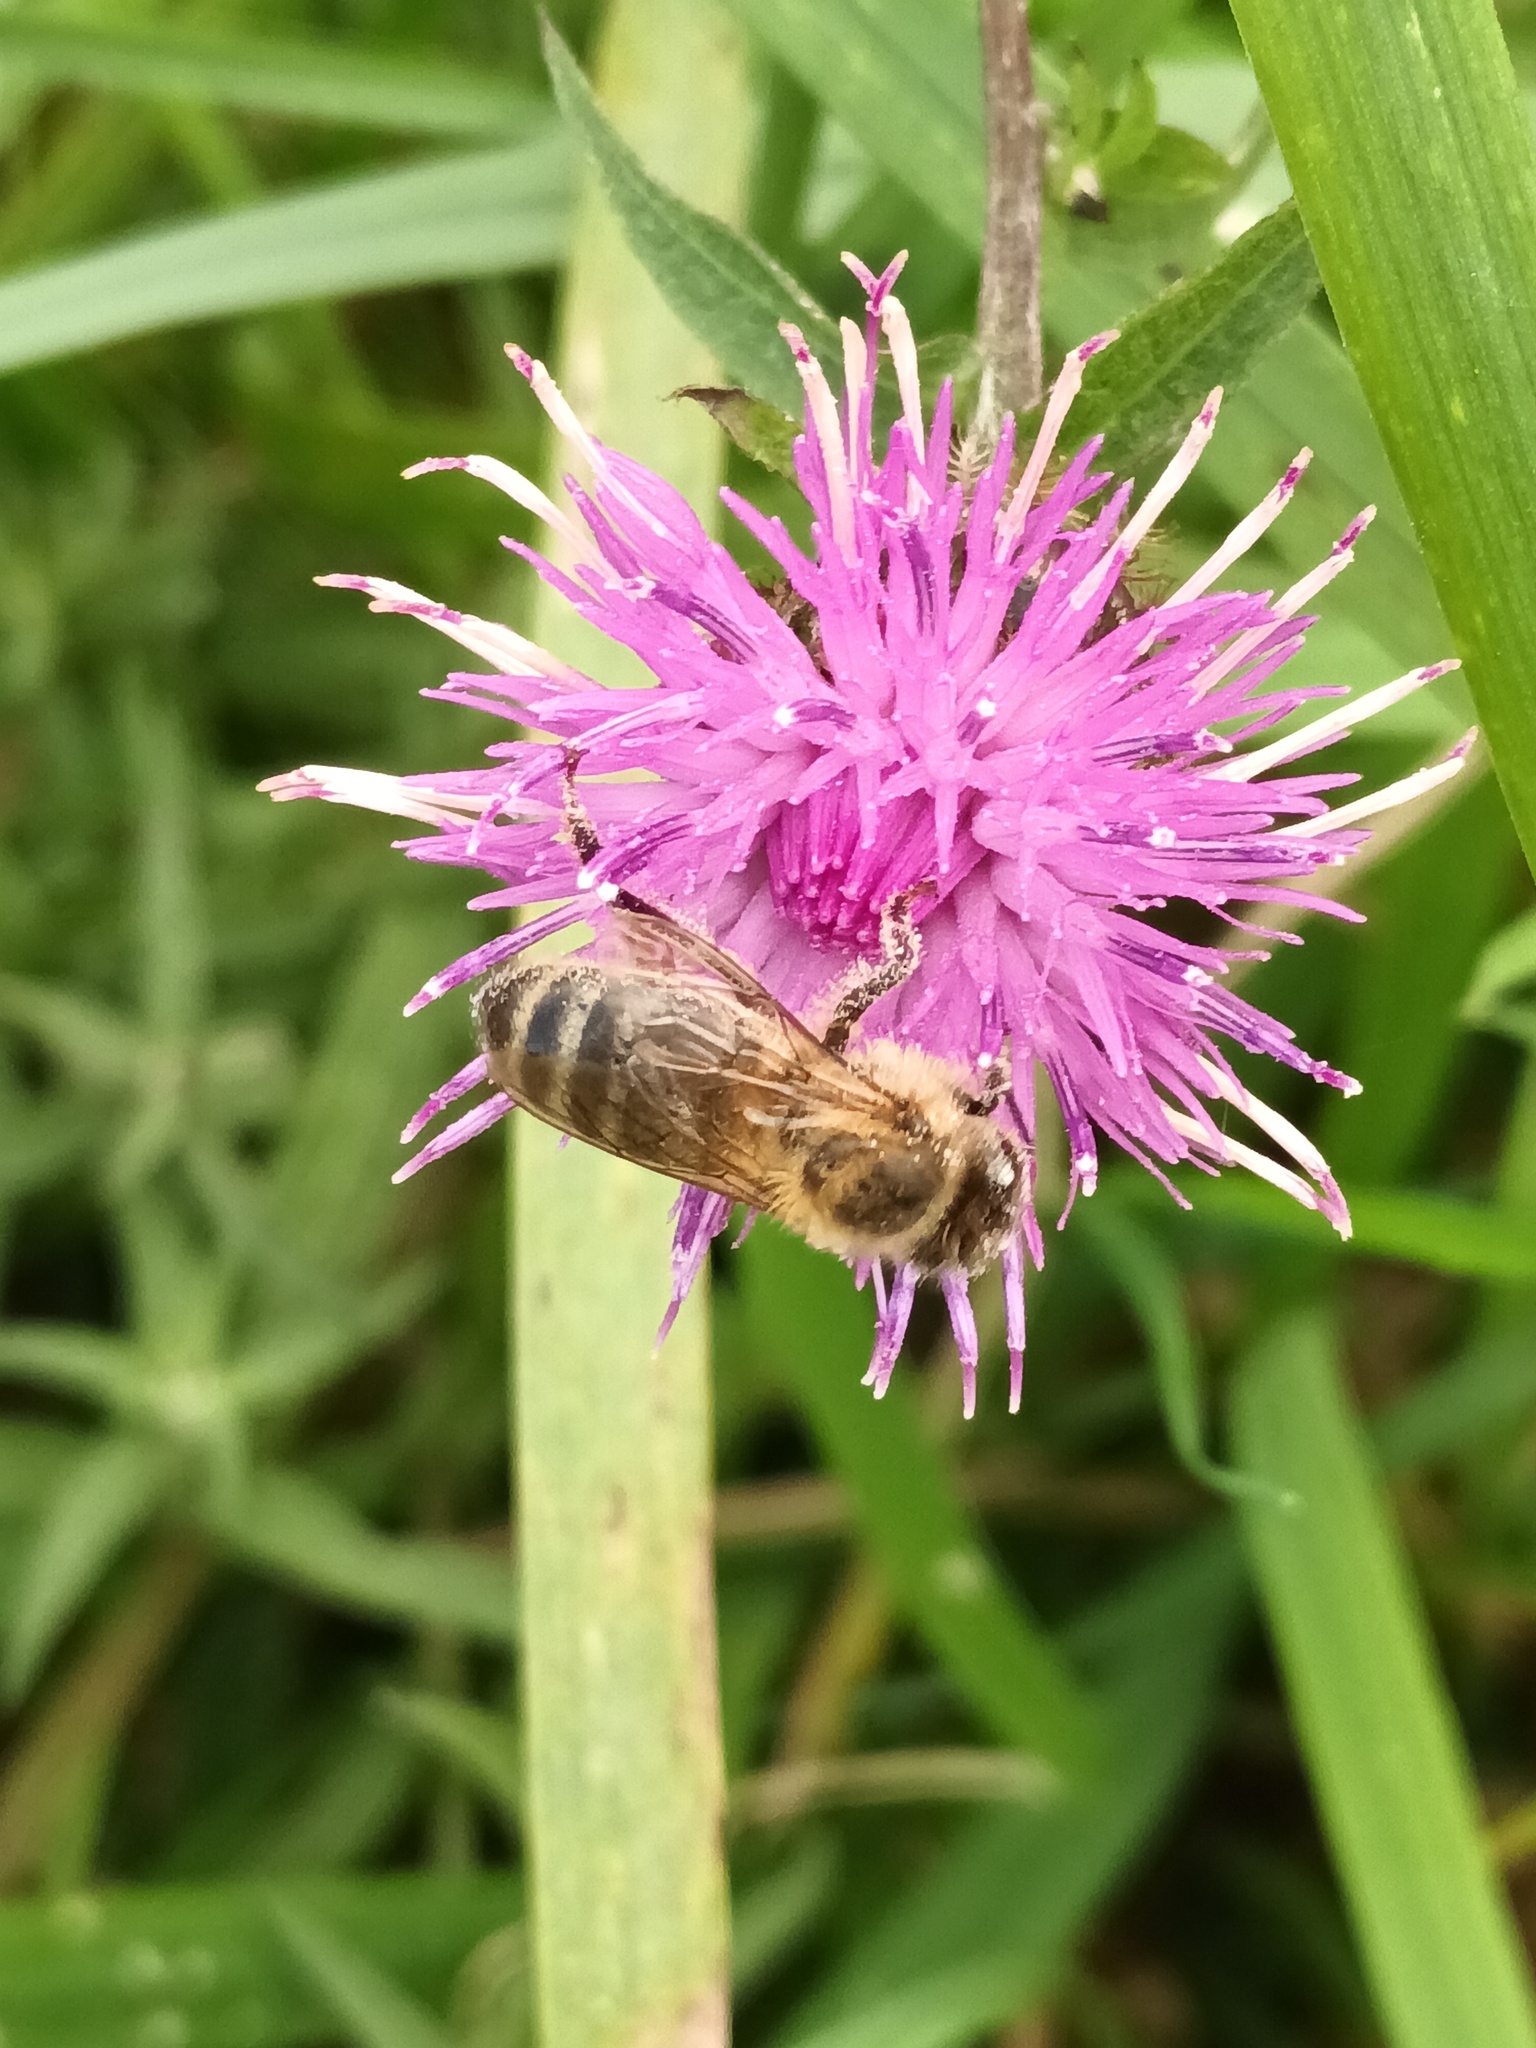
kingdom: Animalia
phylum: Arthropoda
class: Insecta
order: Hymenoptera
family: Apidae
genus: Apis
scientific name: Apis mellifera
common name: Honey bee
